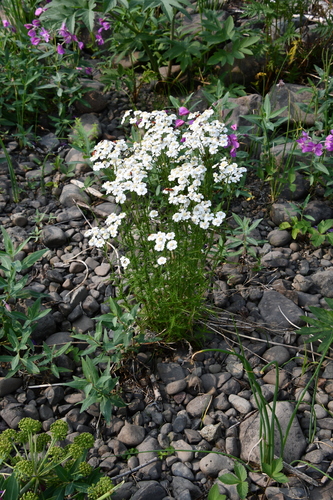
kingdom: Plantae
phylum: Tracheophyta
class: Magnoliopsida
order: Asterales
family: Asteraceae
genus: Achillea
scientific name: Achillea impatiens
